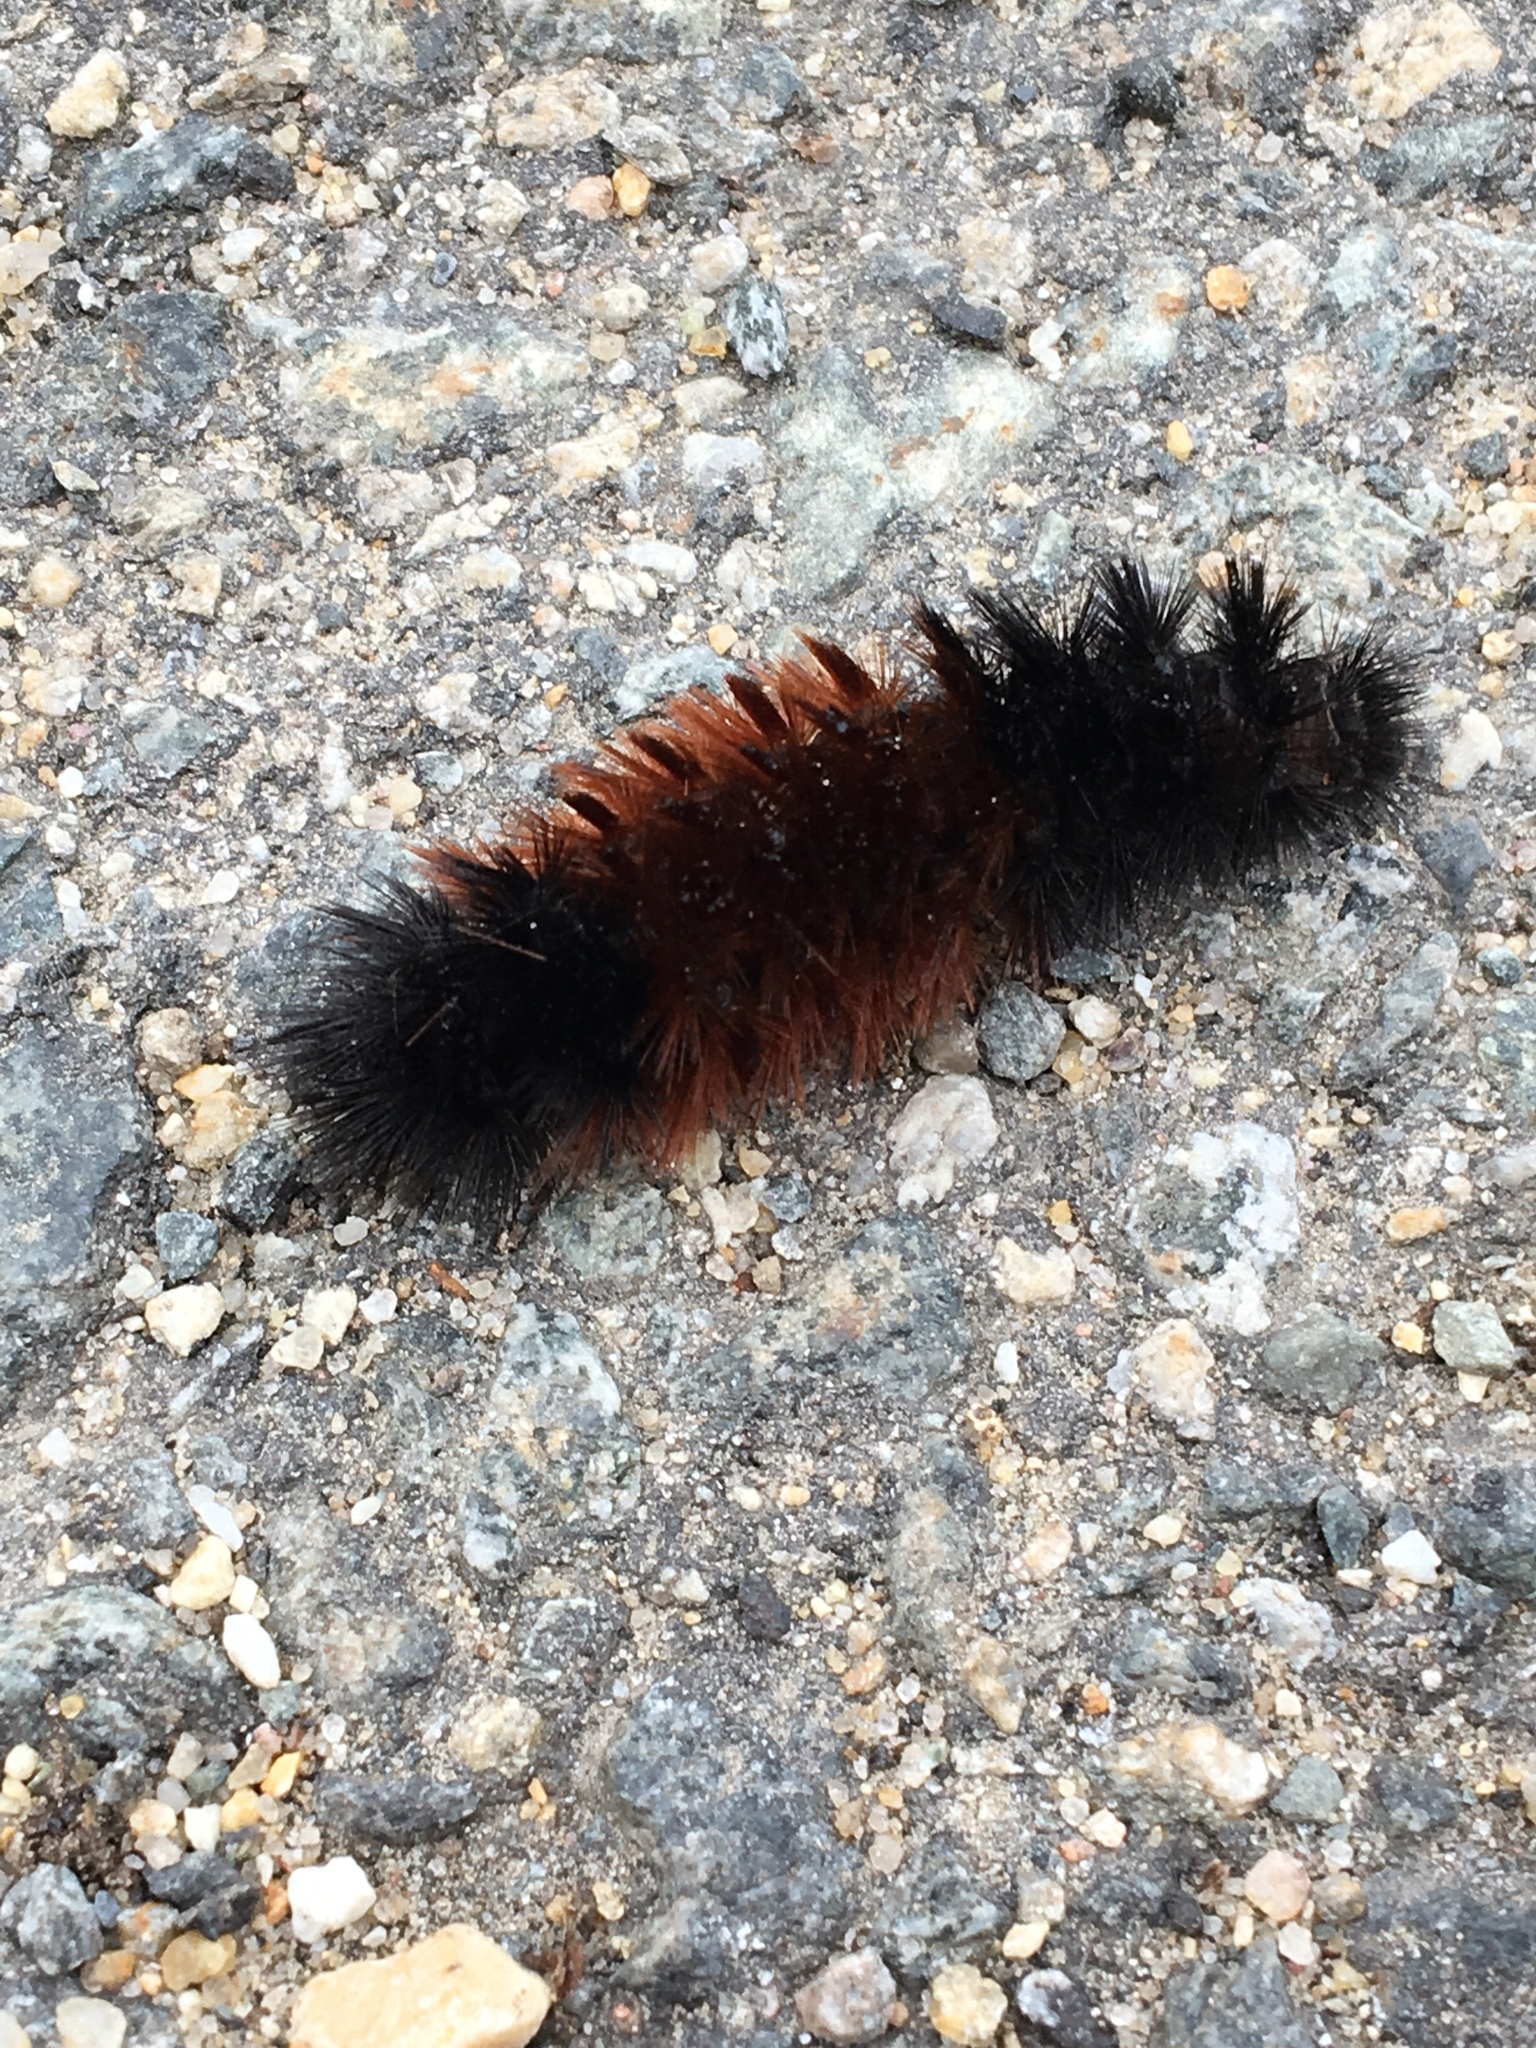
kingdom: Animalia
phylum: Arthropoda
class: Insecta
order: Lepidoptera
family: Erebidae
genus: Pyrrharctia
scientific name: Pyrrharctia isabella
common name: Isabella tiger moth
